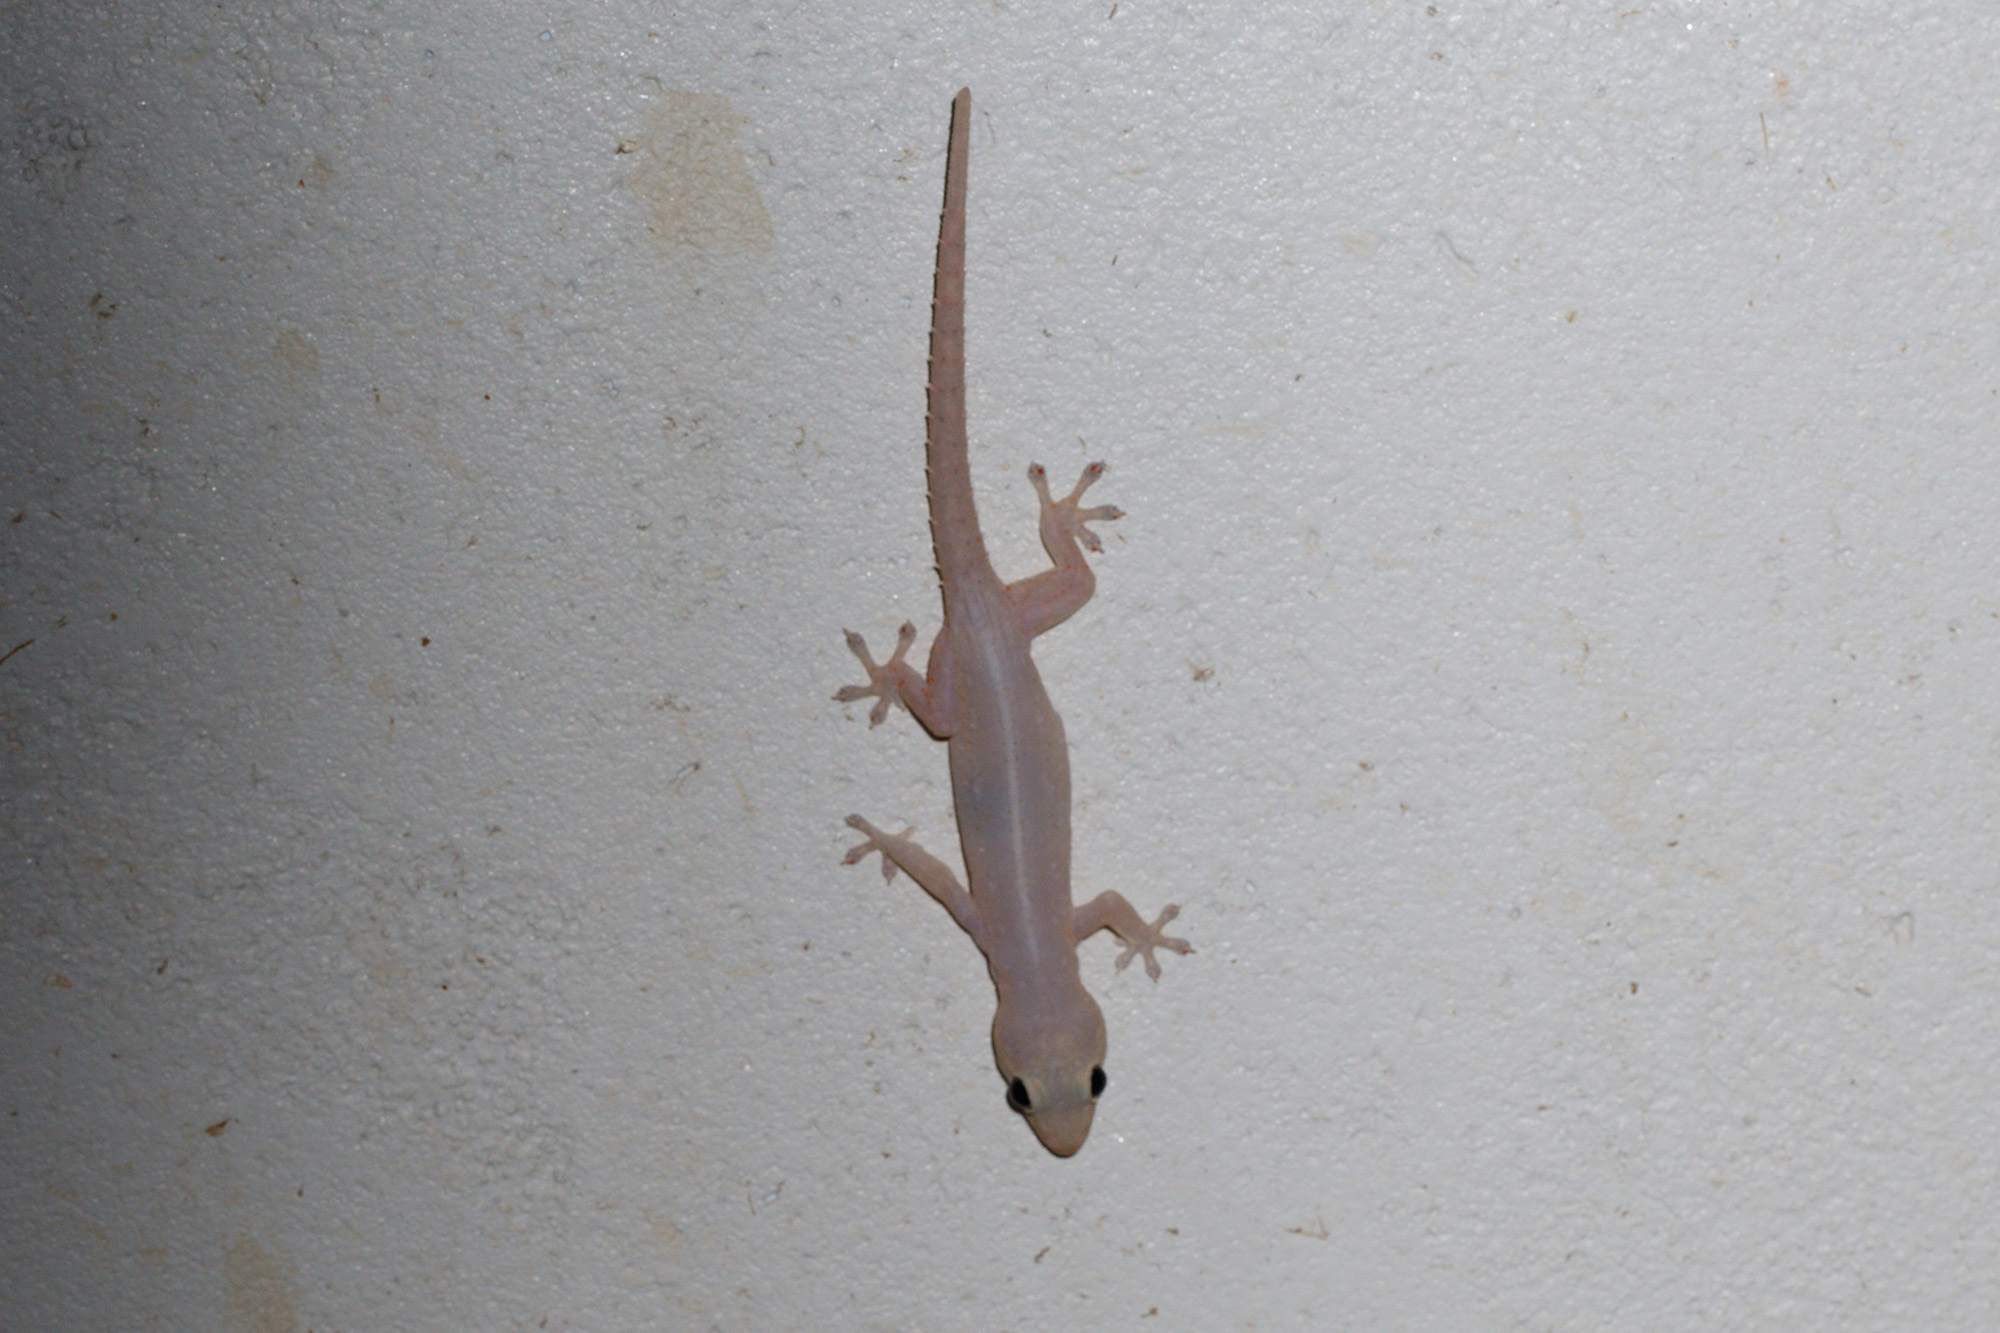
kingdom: Animalia
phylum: Chordata
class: Squamata
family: Gekkonidae
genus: Hemidactylus
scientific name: Hemidactylus frenatus
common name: Common house gecko
